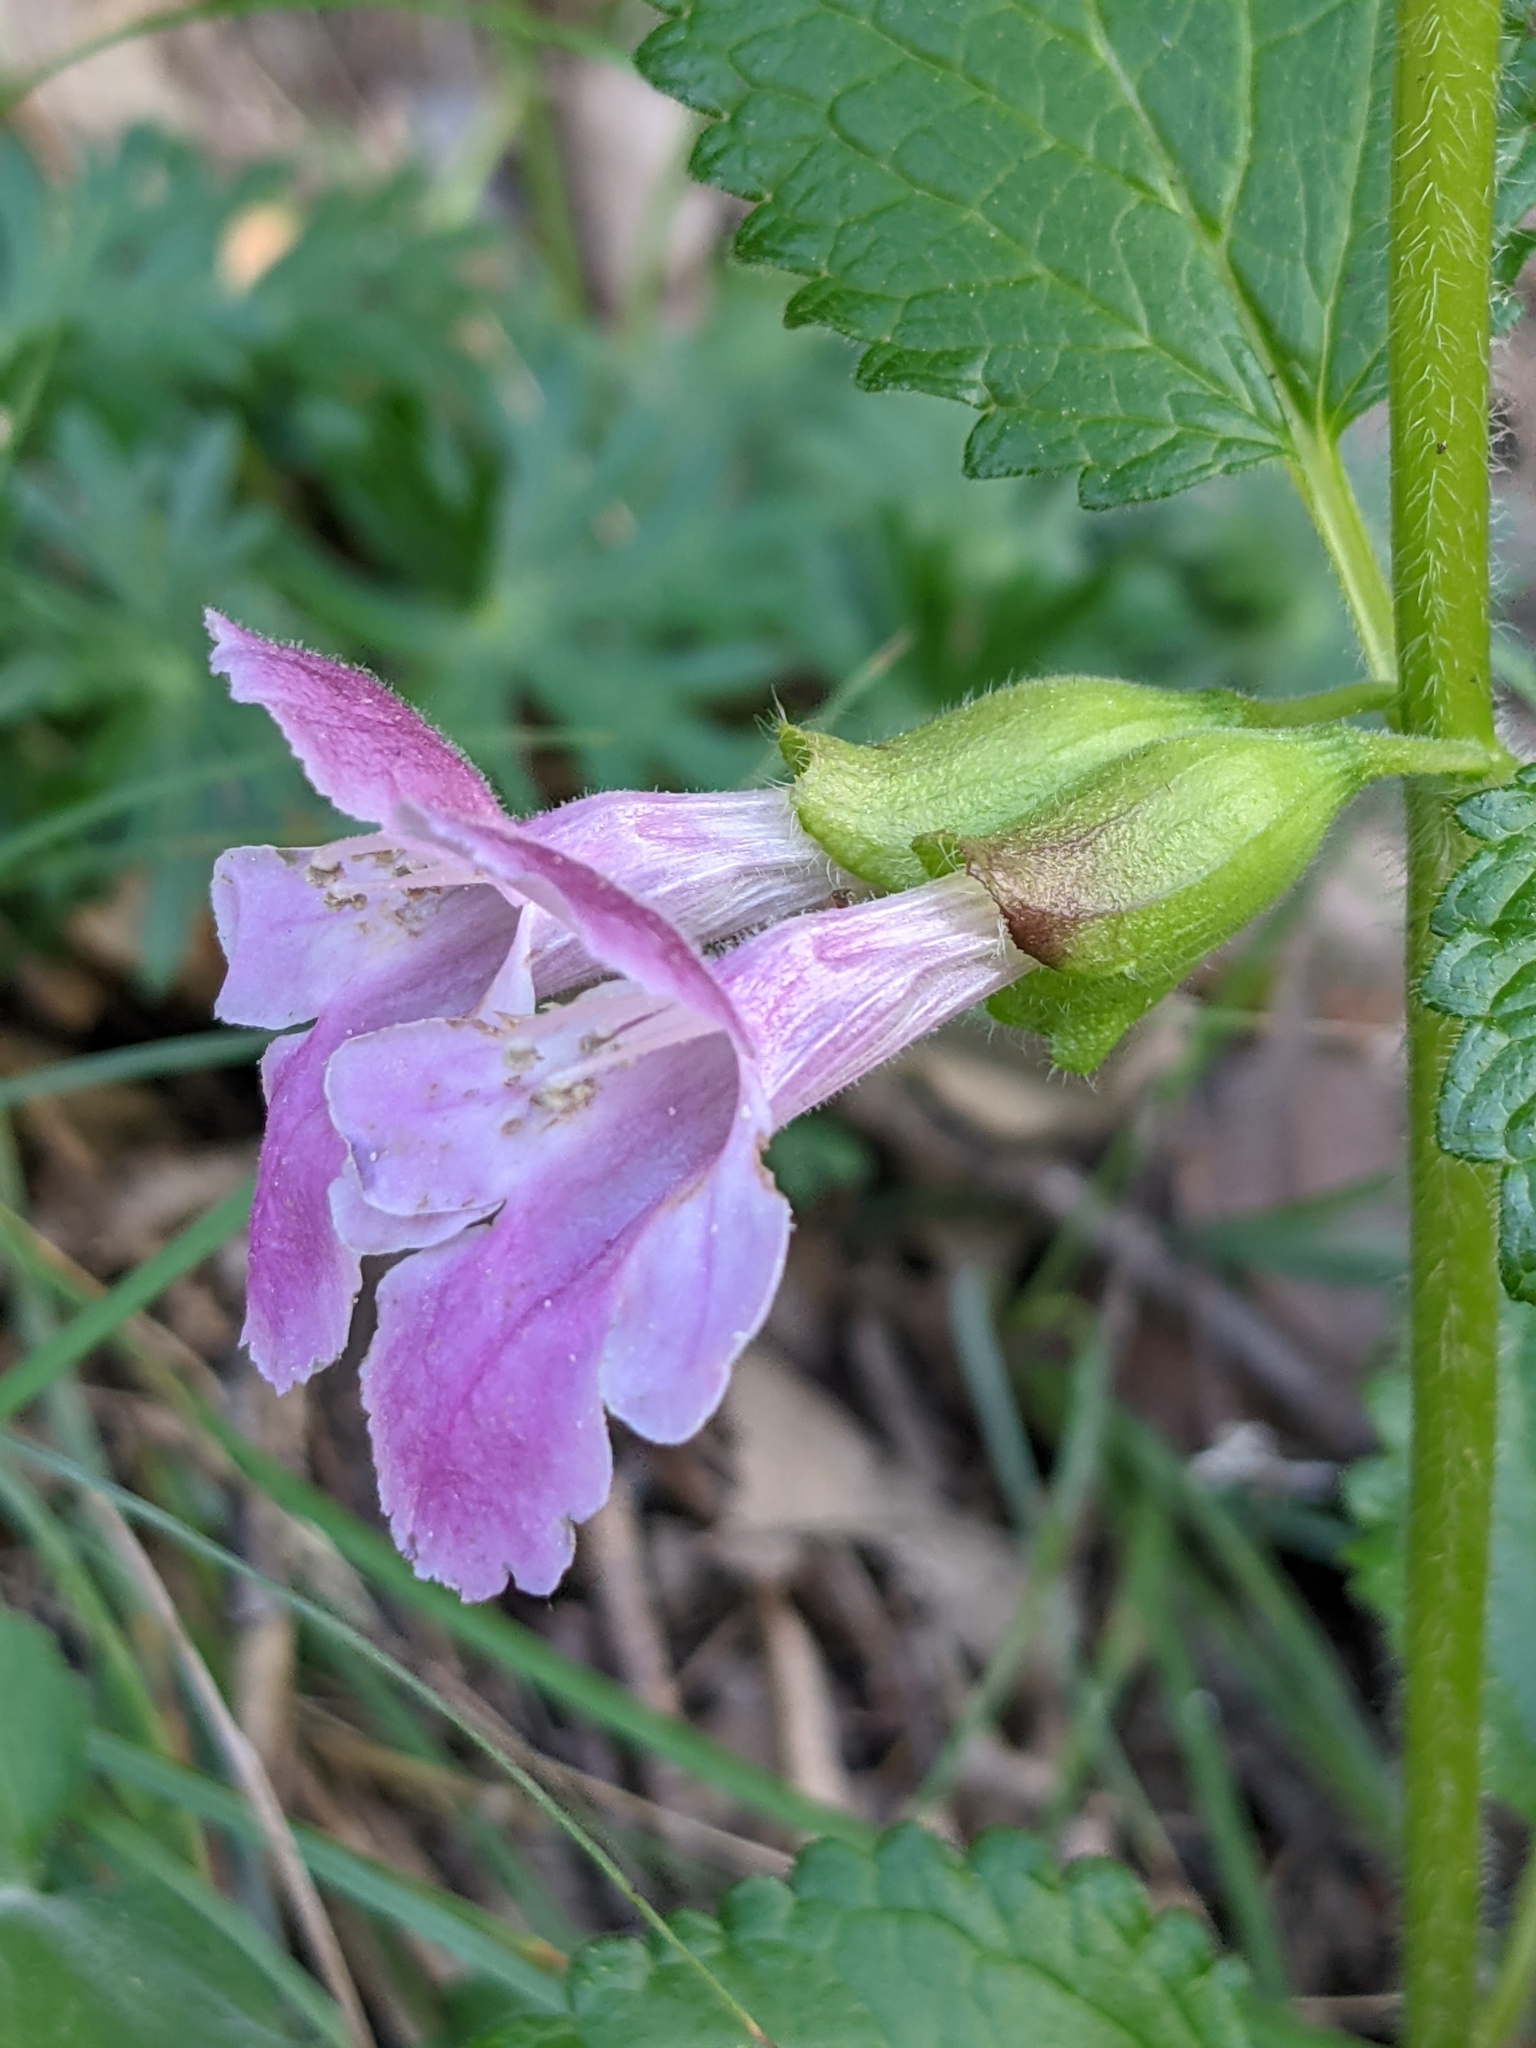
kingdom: Plantae
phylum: Tracheophyta
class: Magnoliopsida
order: Lamiales
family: Lamiaceae
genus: Melittis
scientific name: Melittis melissophyllum
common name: Bastard balm
